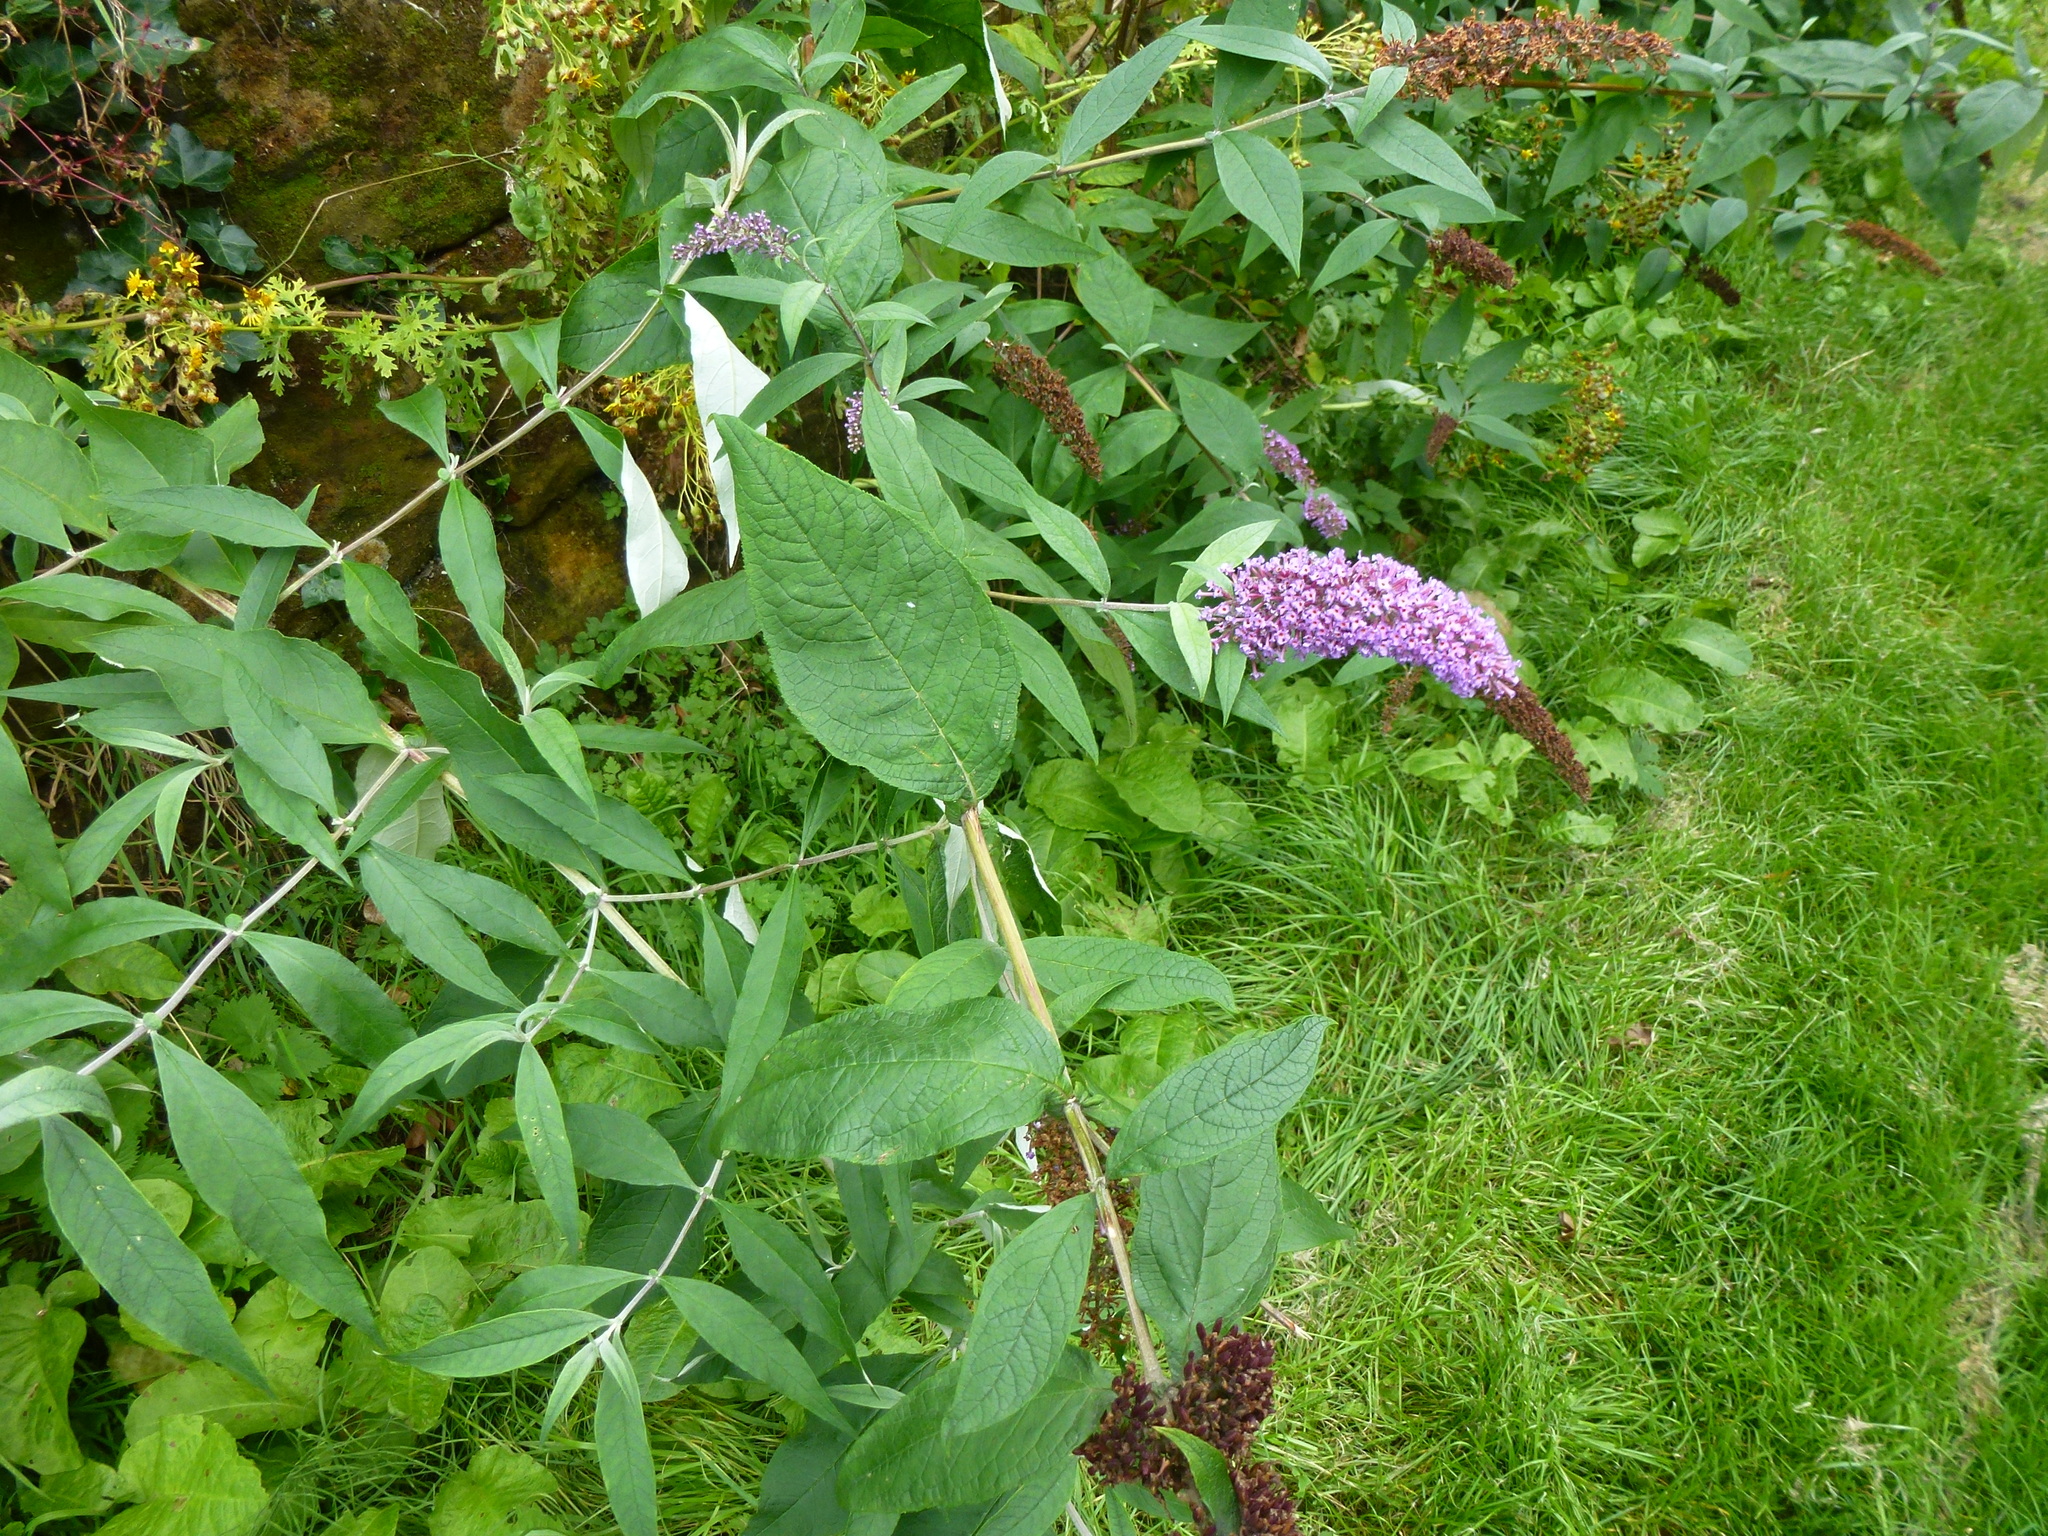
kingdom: Plantae
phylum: Tracheophyta
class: Magnoliopsida
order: Lamiales
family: Scrophulariaceae
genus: Buddleja
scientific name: Buddleja davidii
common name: Butterfly-bush
